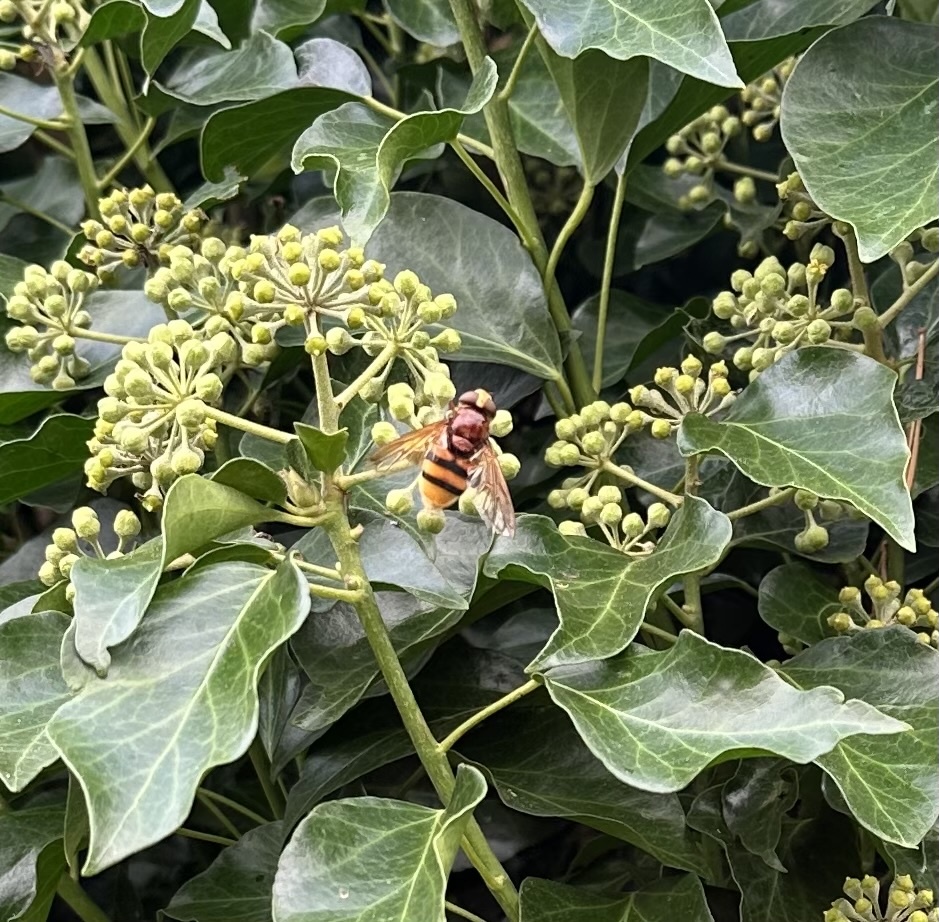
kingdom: Animalia
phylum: Arthropoda
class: Insecta
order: Diptera
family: Syrphidae
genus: Volucella
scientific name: Volucella zonaria
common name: Hornet hoverfly
